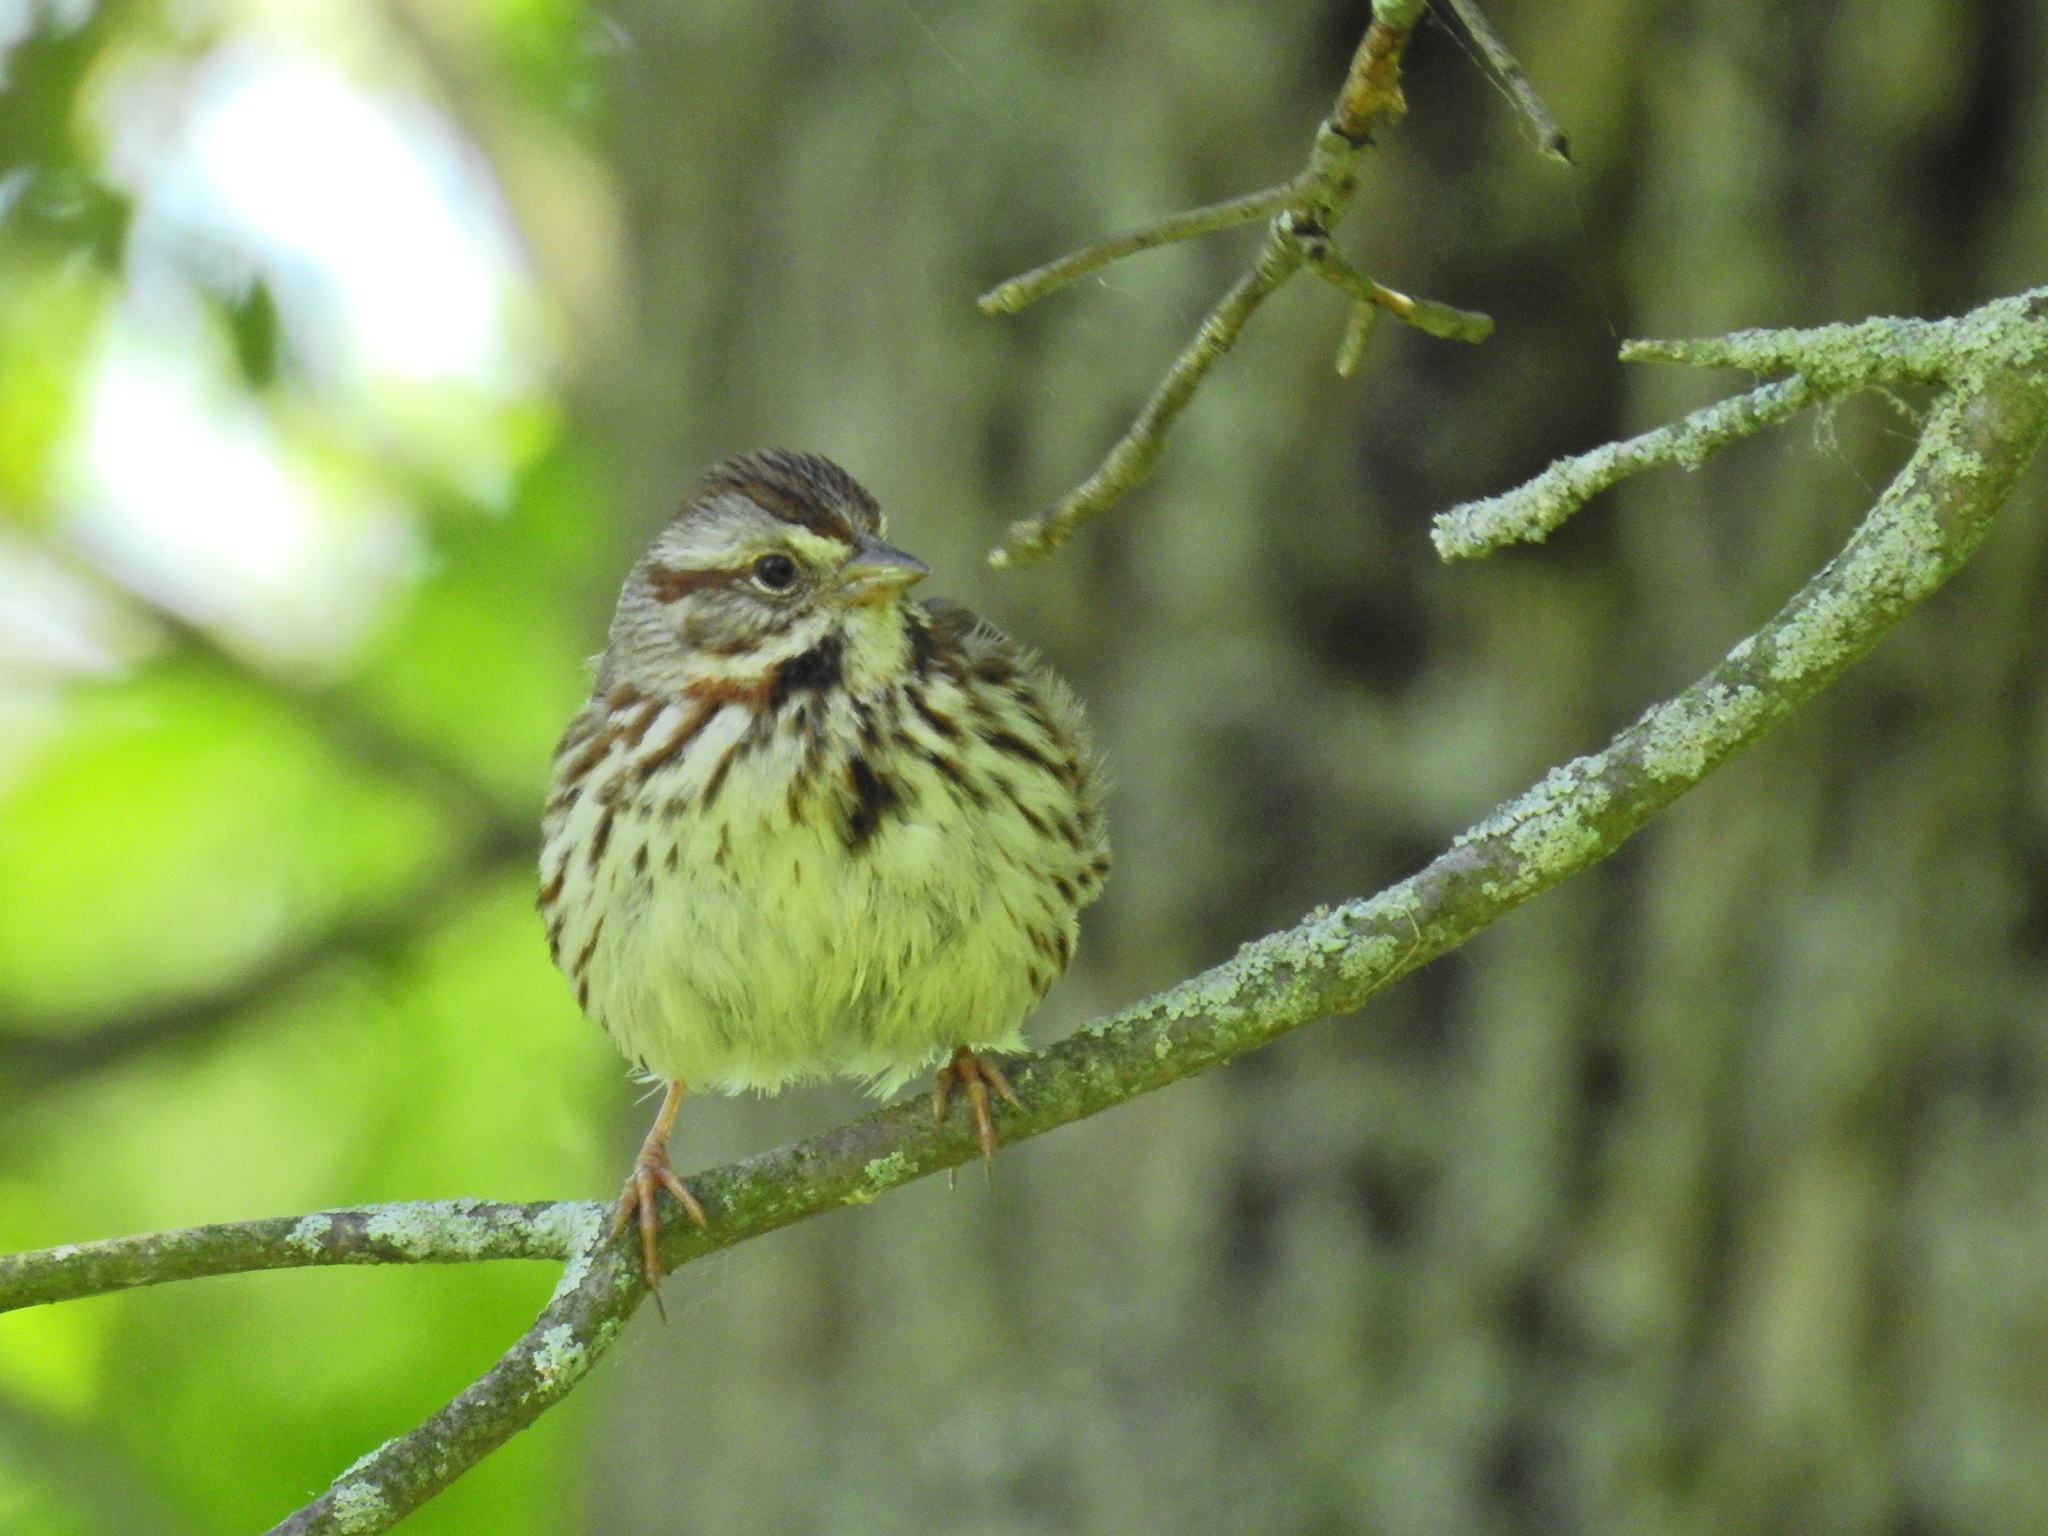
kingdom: Animalia
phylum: Chordata
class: Aves
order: Passeriformes
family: Passerellidae
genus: Melospiza
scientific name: Melospiza melodia
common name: Song sparrow
